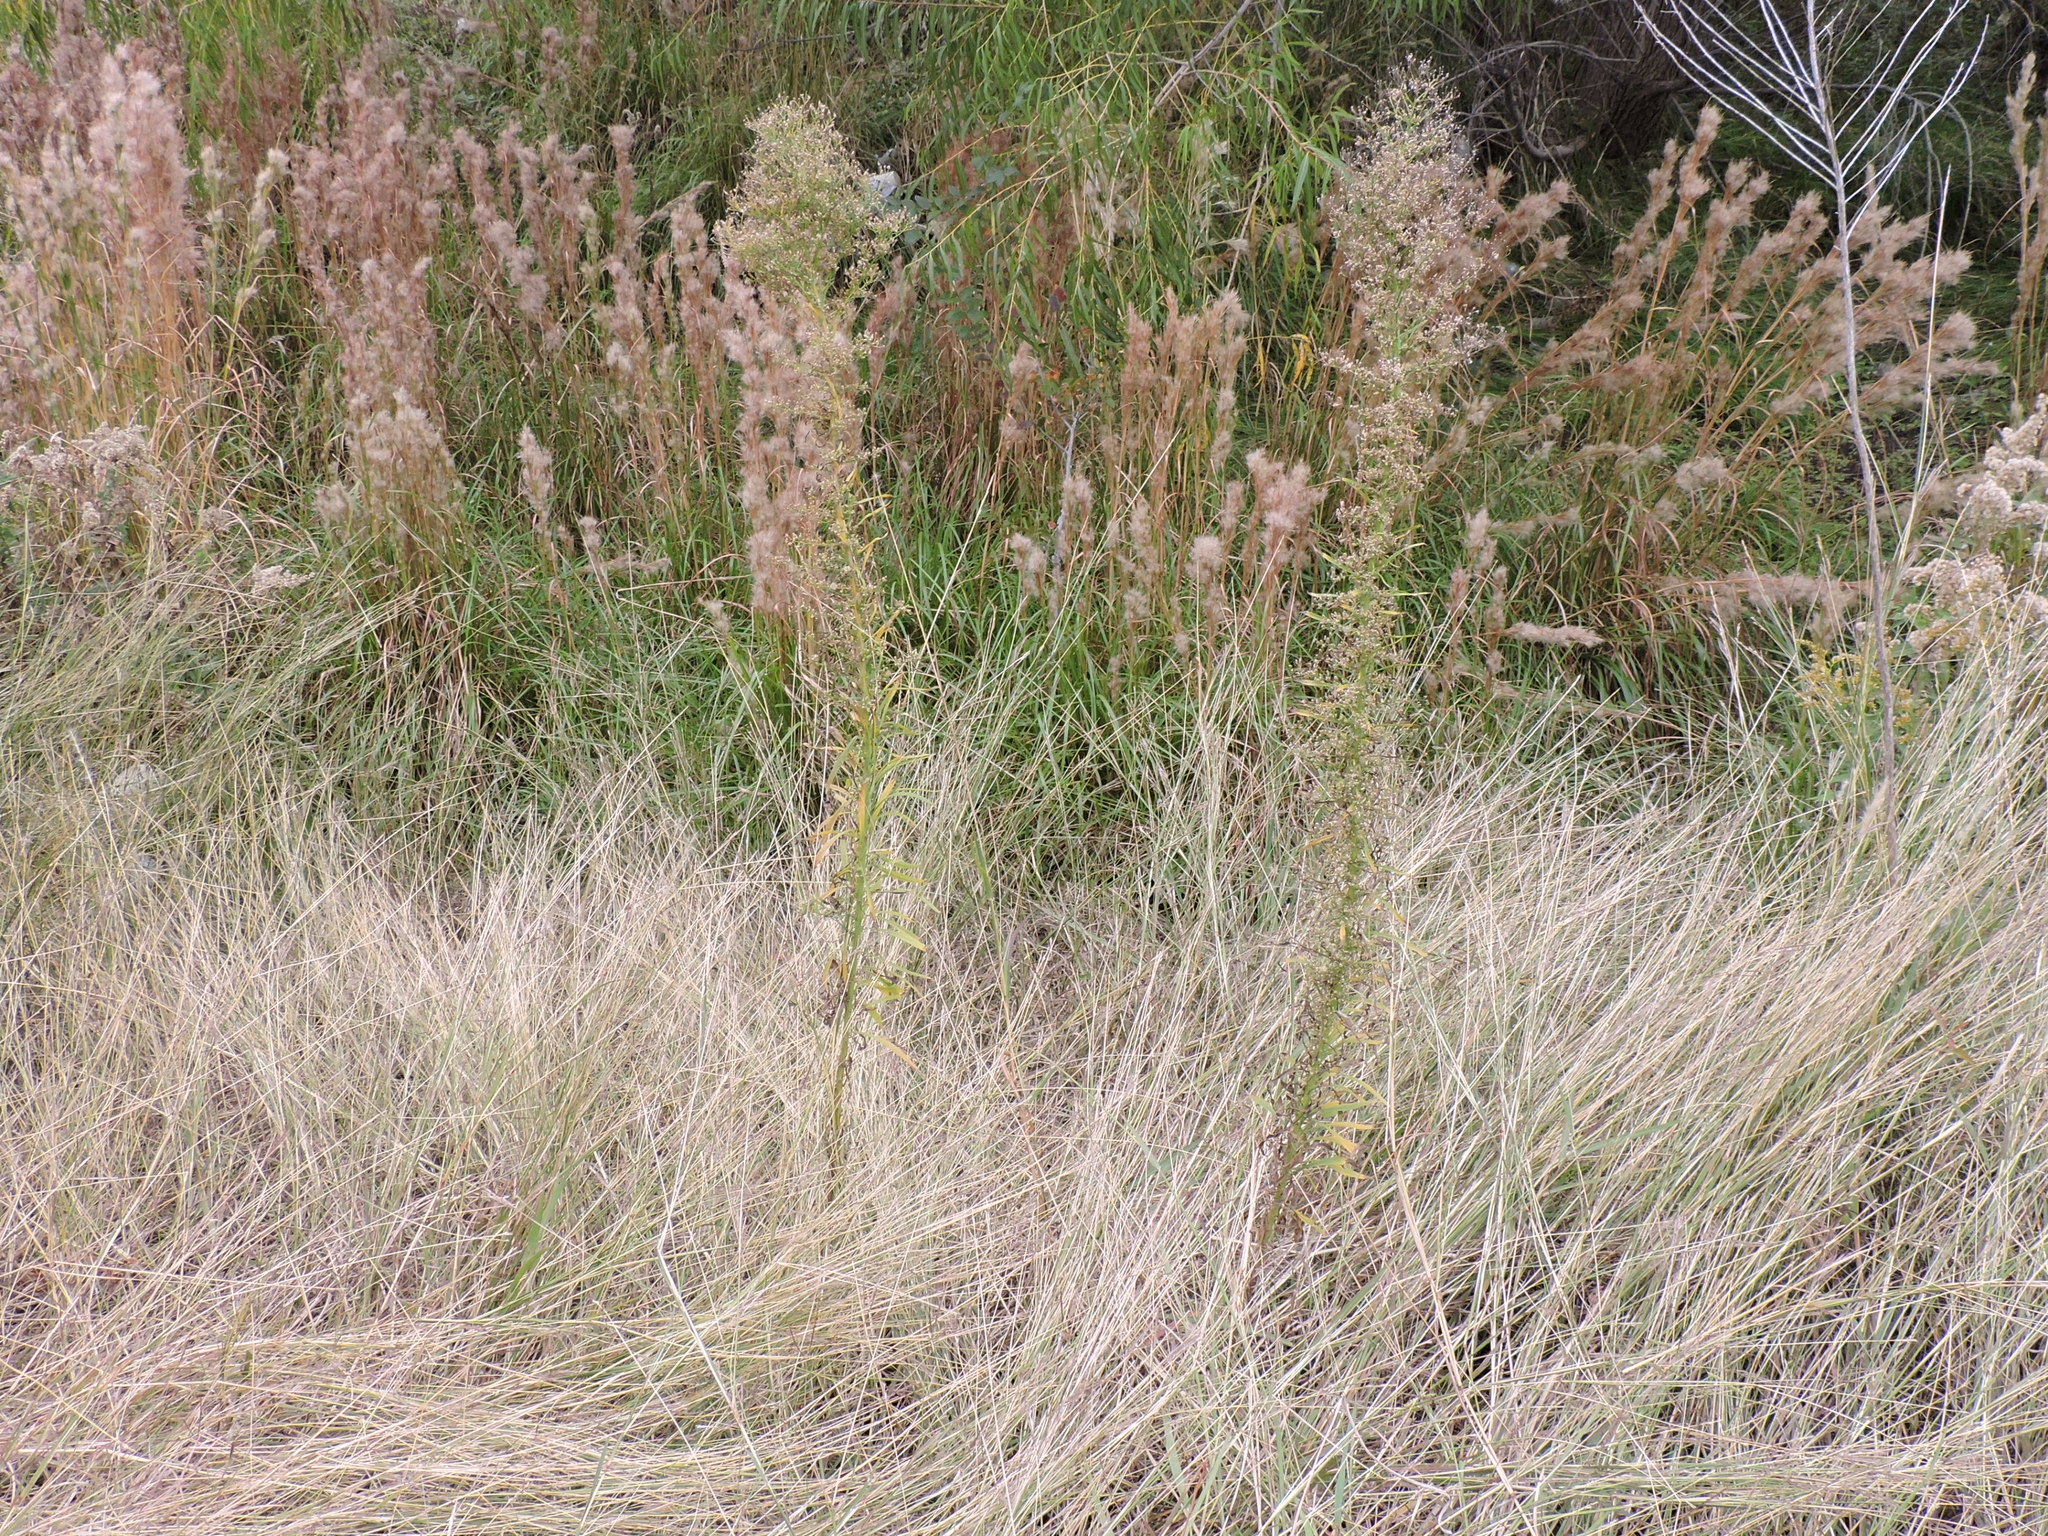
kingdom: Plantae
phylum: Tracheophyta
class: Magnoliopsida
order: Asterales
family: Asteraceae
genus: Erigeron
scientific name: Erigeron canadensis
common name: Canadian fleabane
